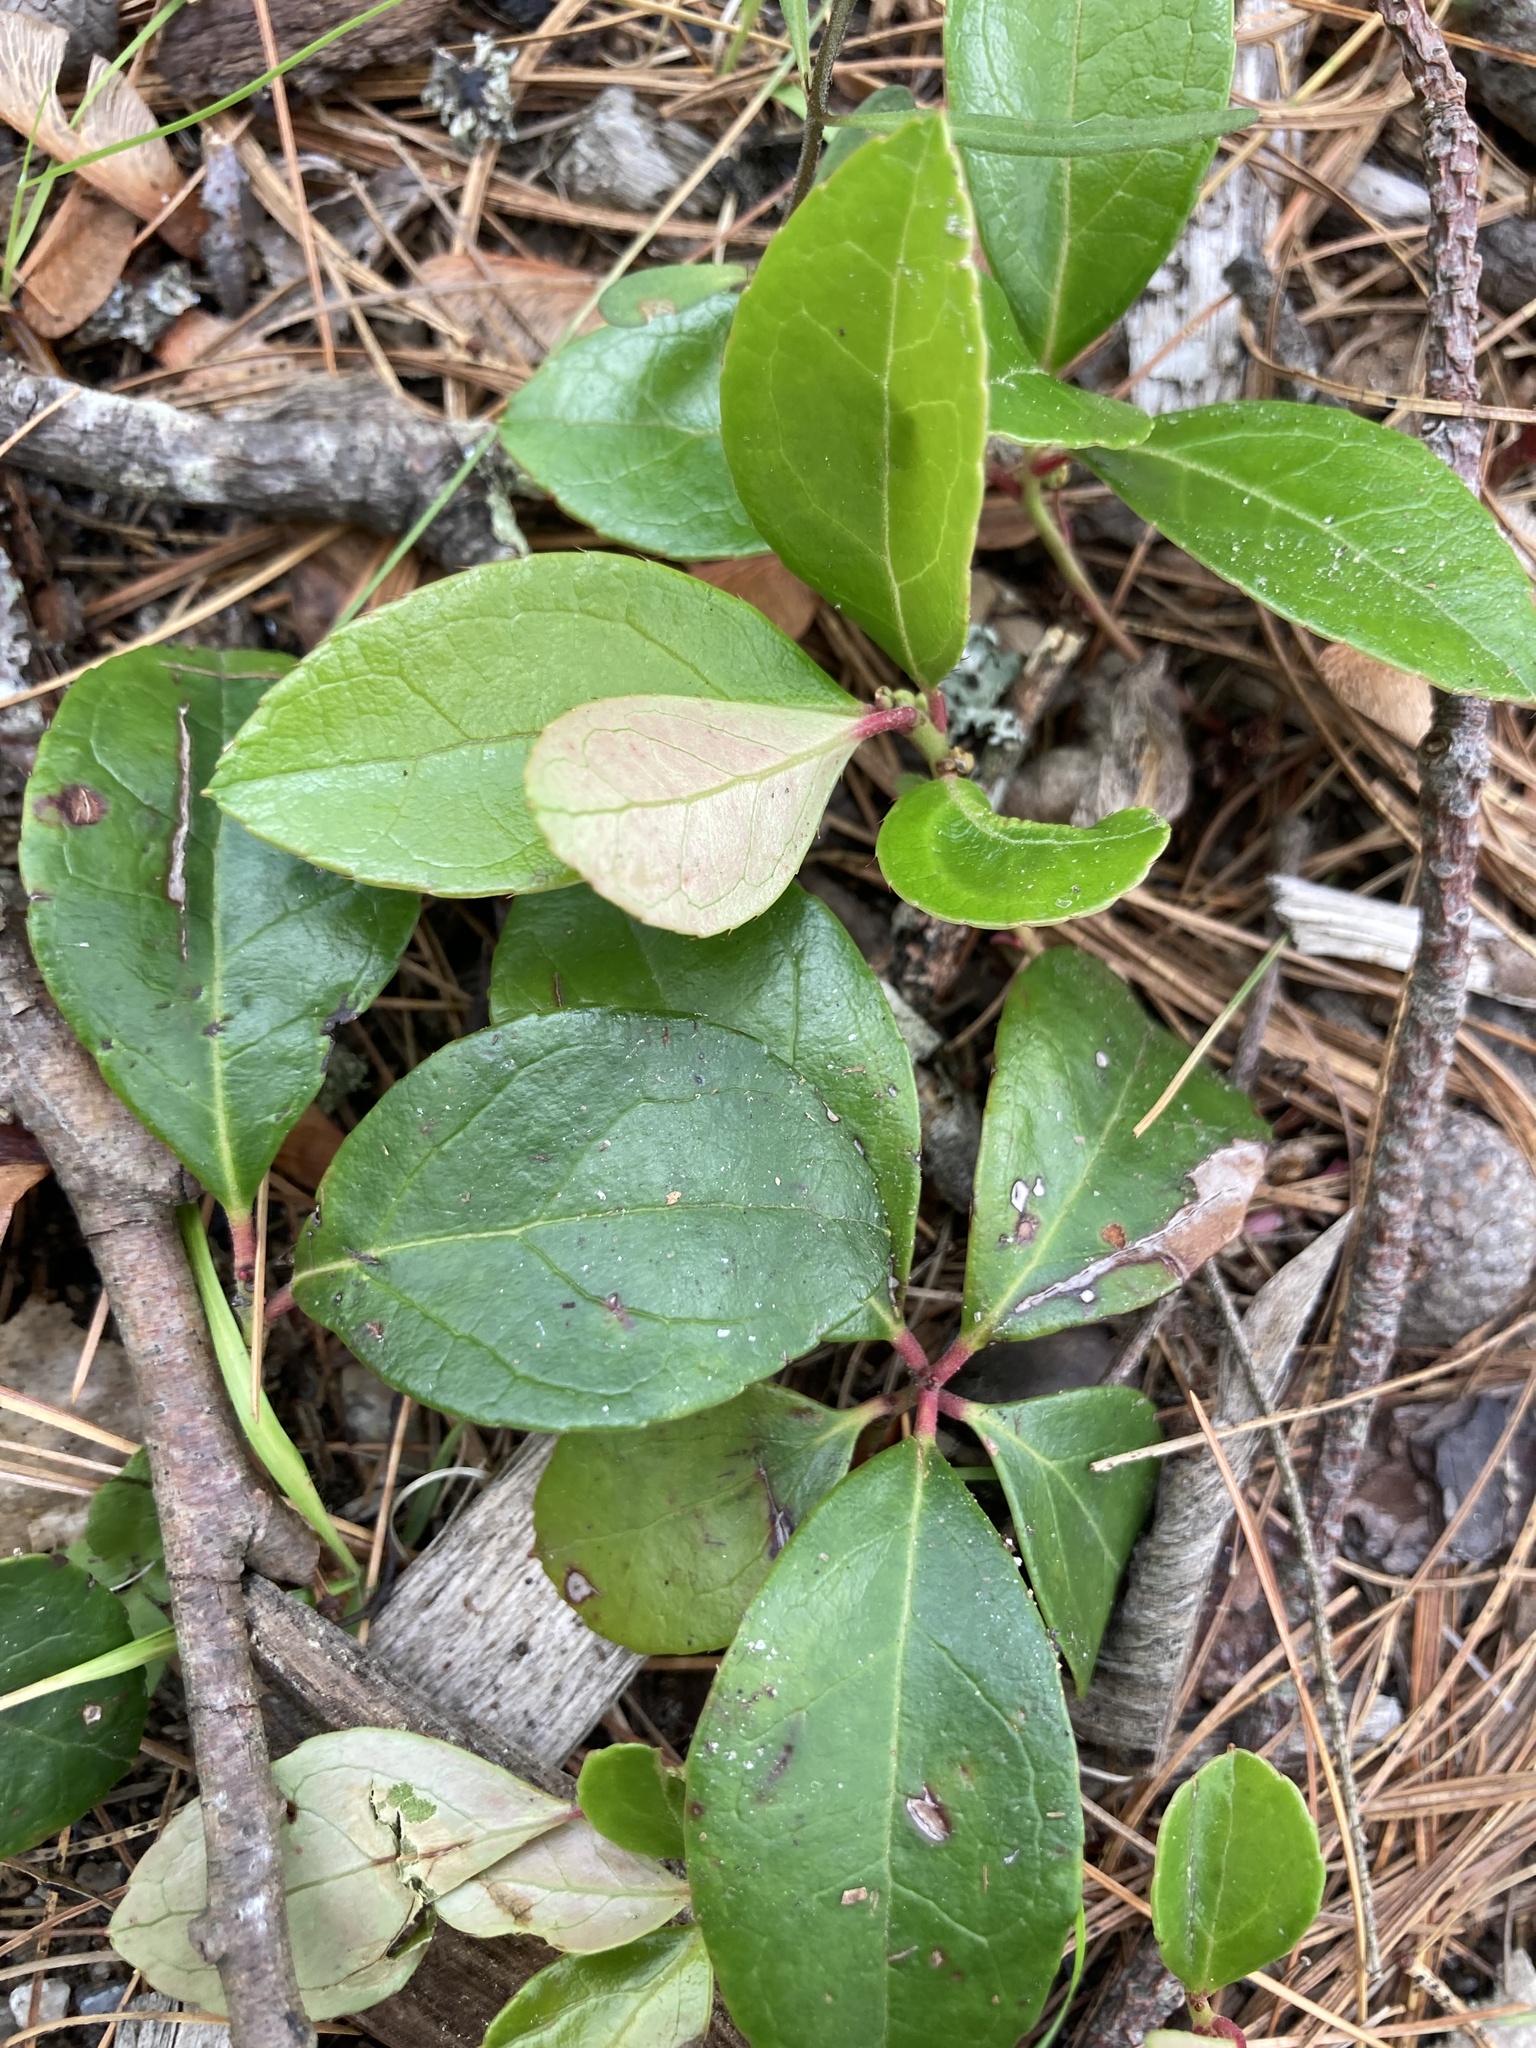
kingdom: Plantae
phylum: Tracheophyta
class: Magnoliopsida
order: Ericales
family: Ericaceae
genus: Gaultheria
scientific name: Gaultheria procumbens
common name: Checkerberry
